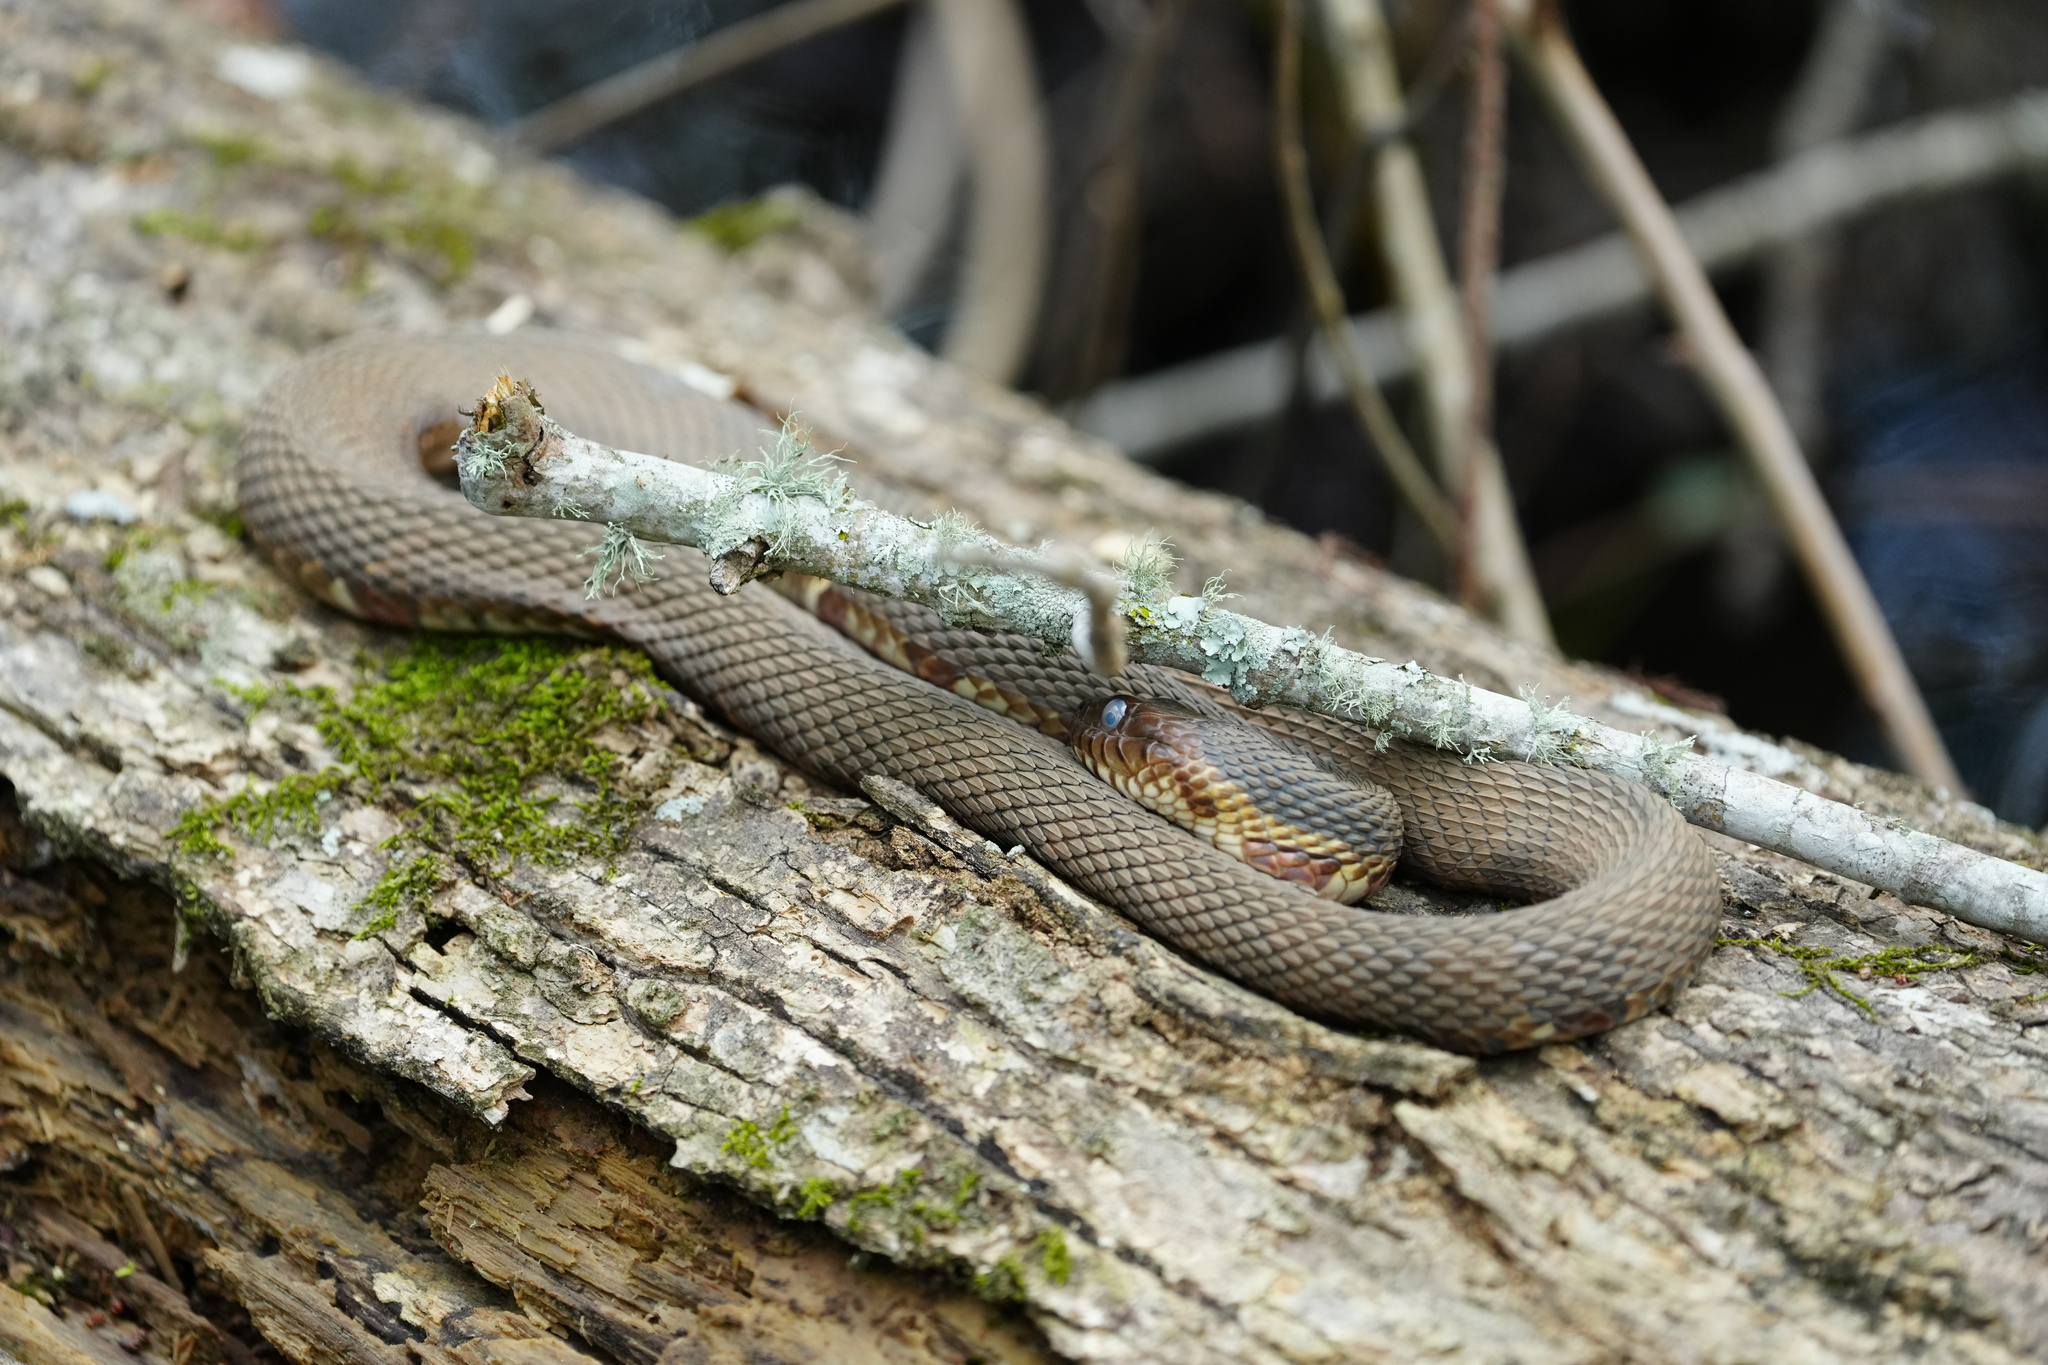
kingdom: Animalia
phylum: Chordata
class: Squamata
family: Colubridae
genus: Nerodia
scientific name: Nerodia fasciata
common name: Southern water snake
